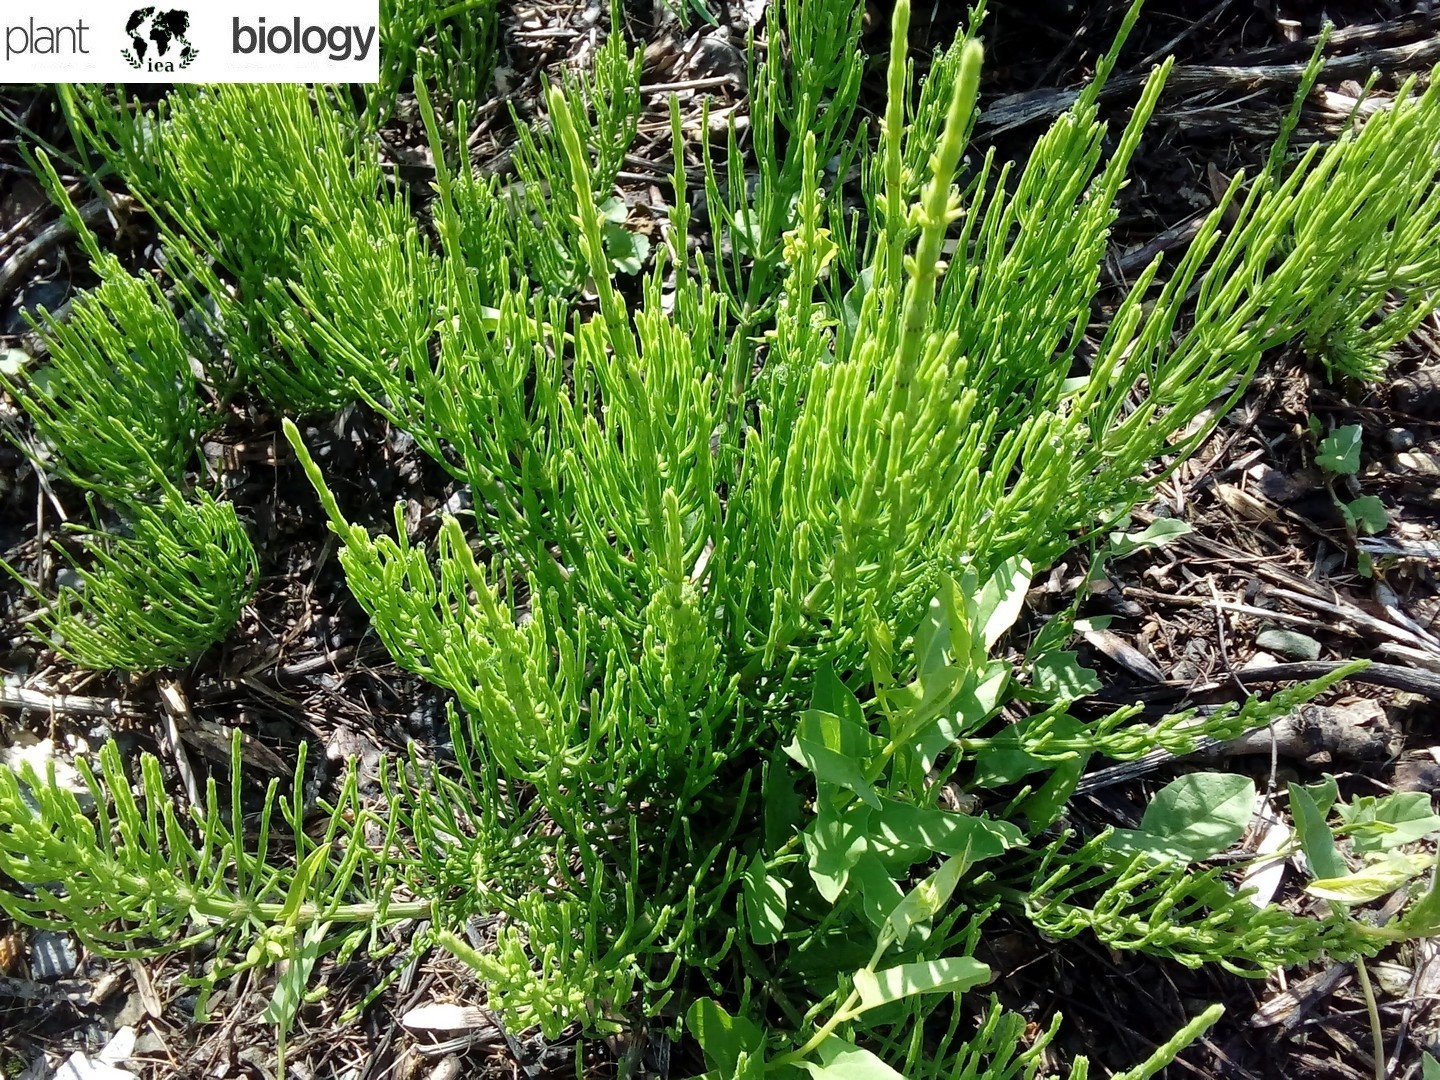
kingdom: Plantae
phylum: Tracheophyta
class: Polypodiopsida
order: Equisetales
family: Equisetaceae
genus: Equisetum
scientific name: Equisetum arvense
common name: Field horsetail
